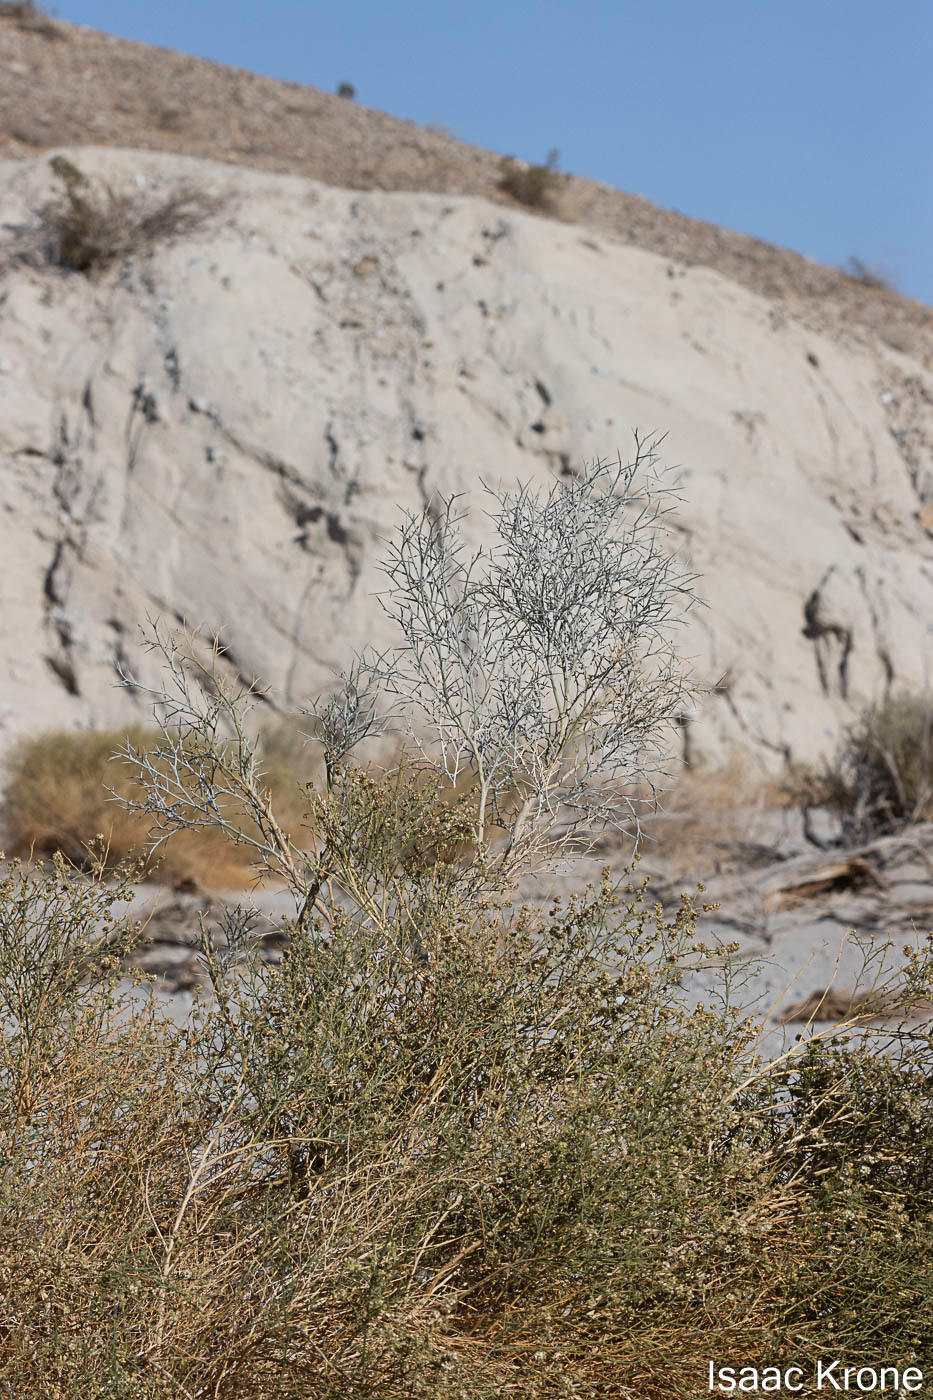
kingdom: Plantae
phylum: Tracheophyta
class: Magnoliopsida
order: Fabales
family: Fabaceae
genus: Psorothamnus
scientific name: Psorothamnus spinosus
